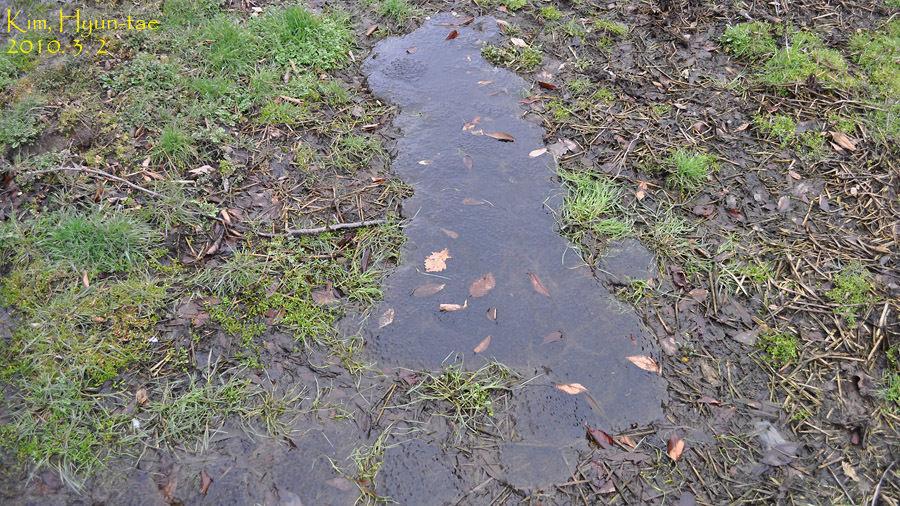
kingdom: Animalia
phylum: Chordata
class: Amphibia
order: Anura
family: Ranidae
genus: Rana
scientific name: Rana uenoi
